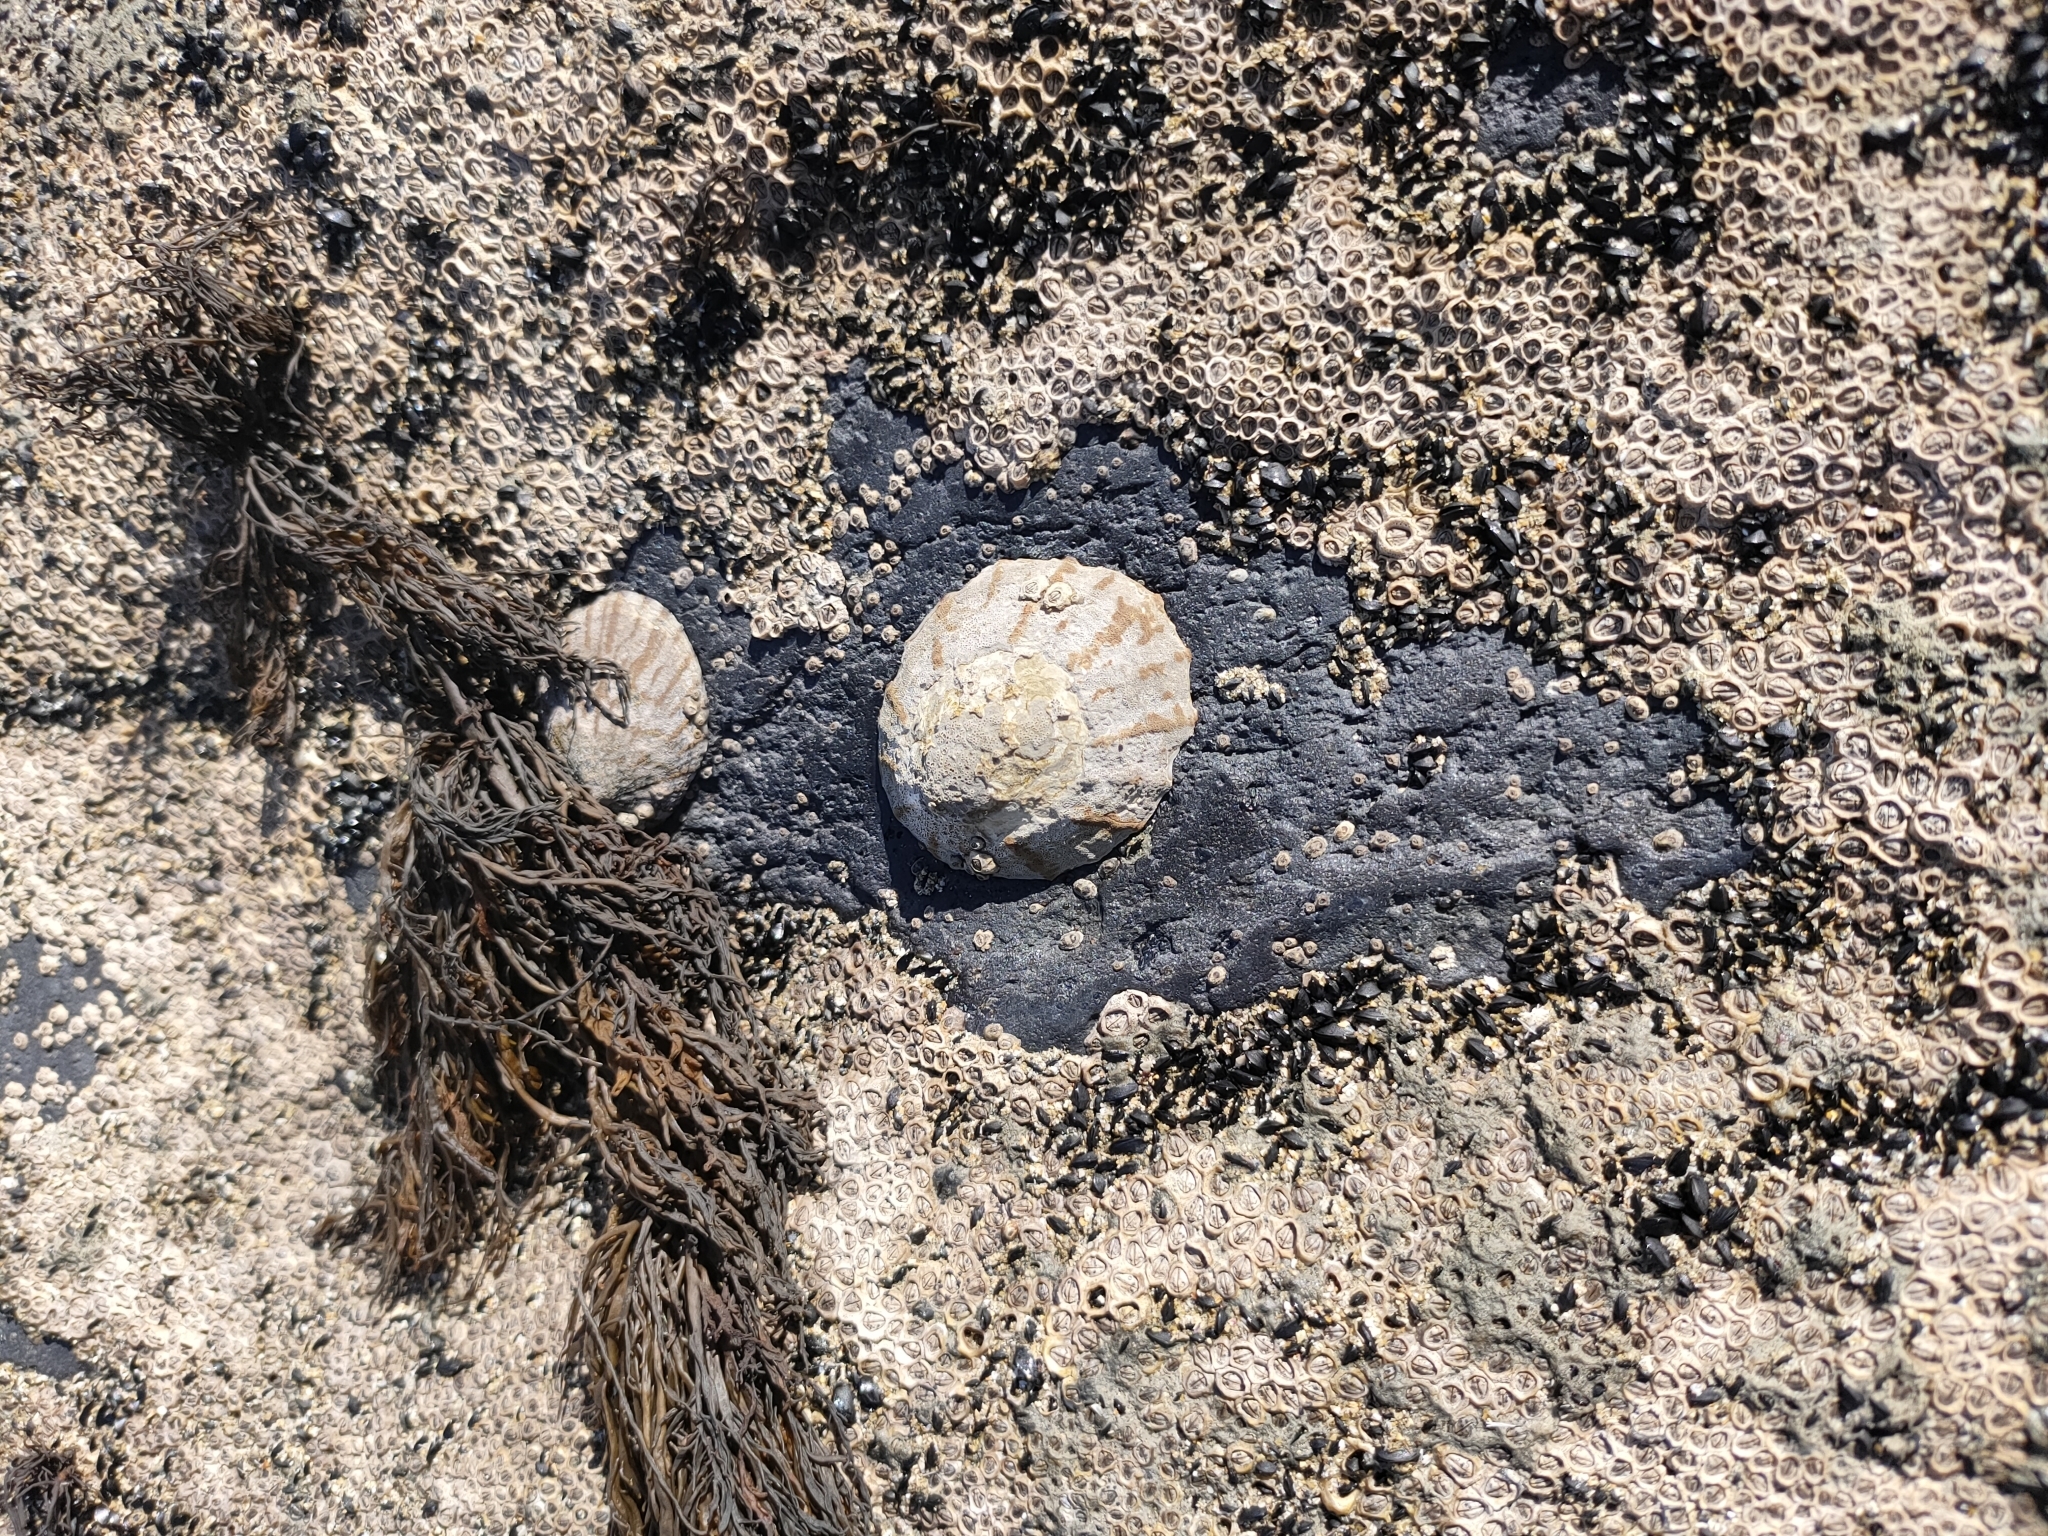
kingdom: Animalia
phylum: Mollusca
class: Gastropoda
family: Nacellidae
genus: Cellana
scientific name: Cellana radians
